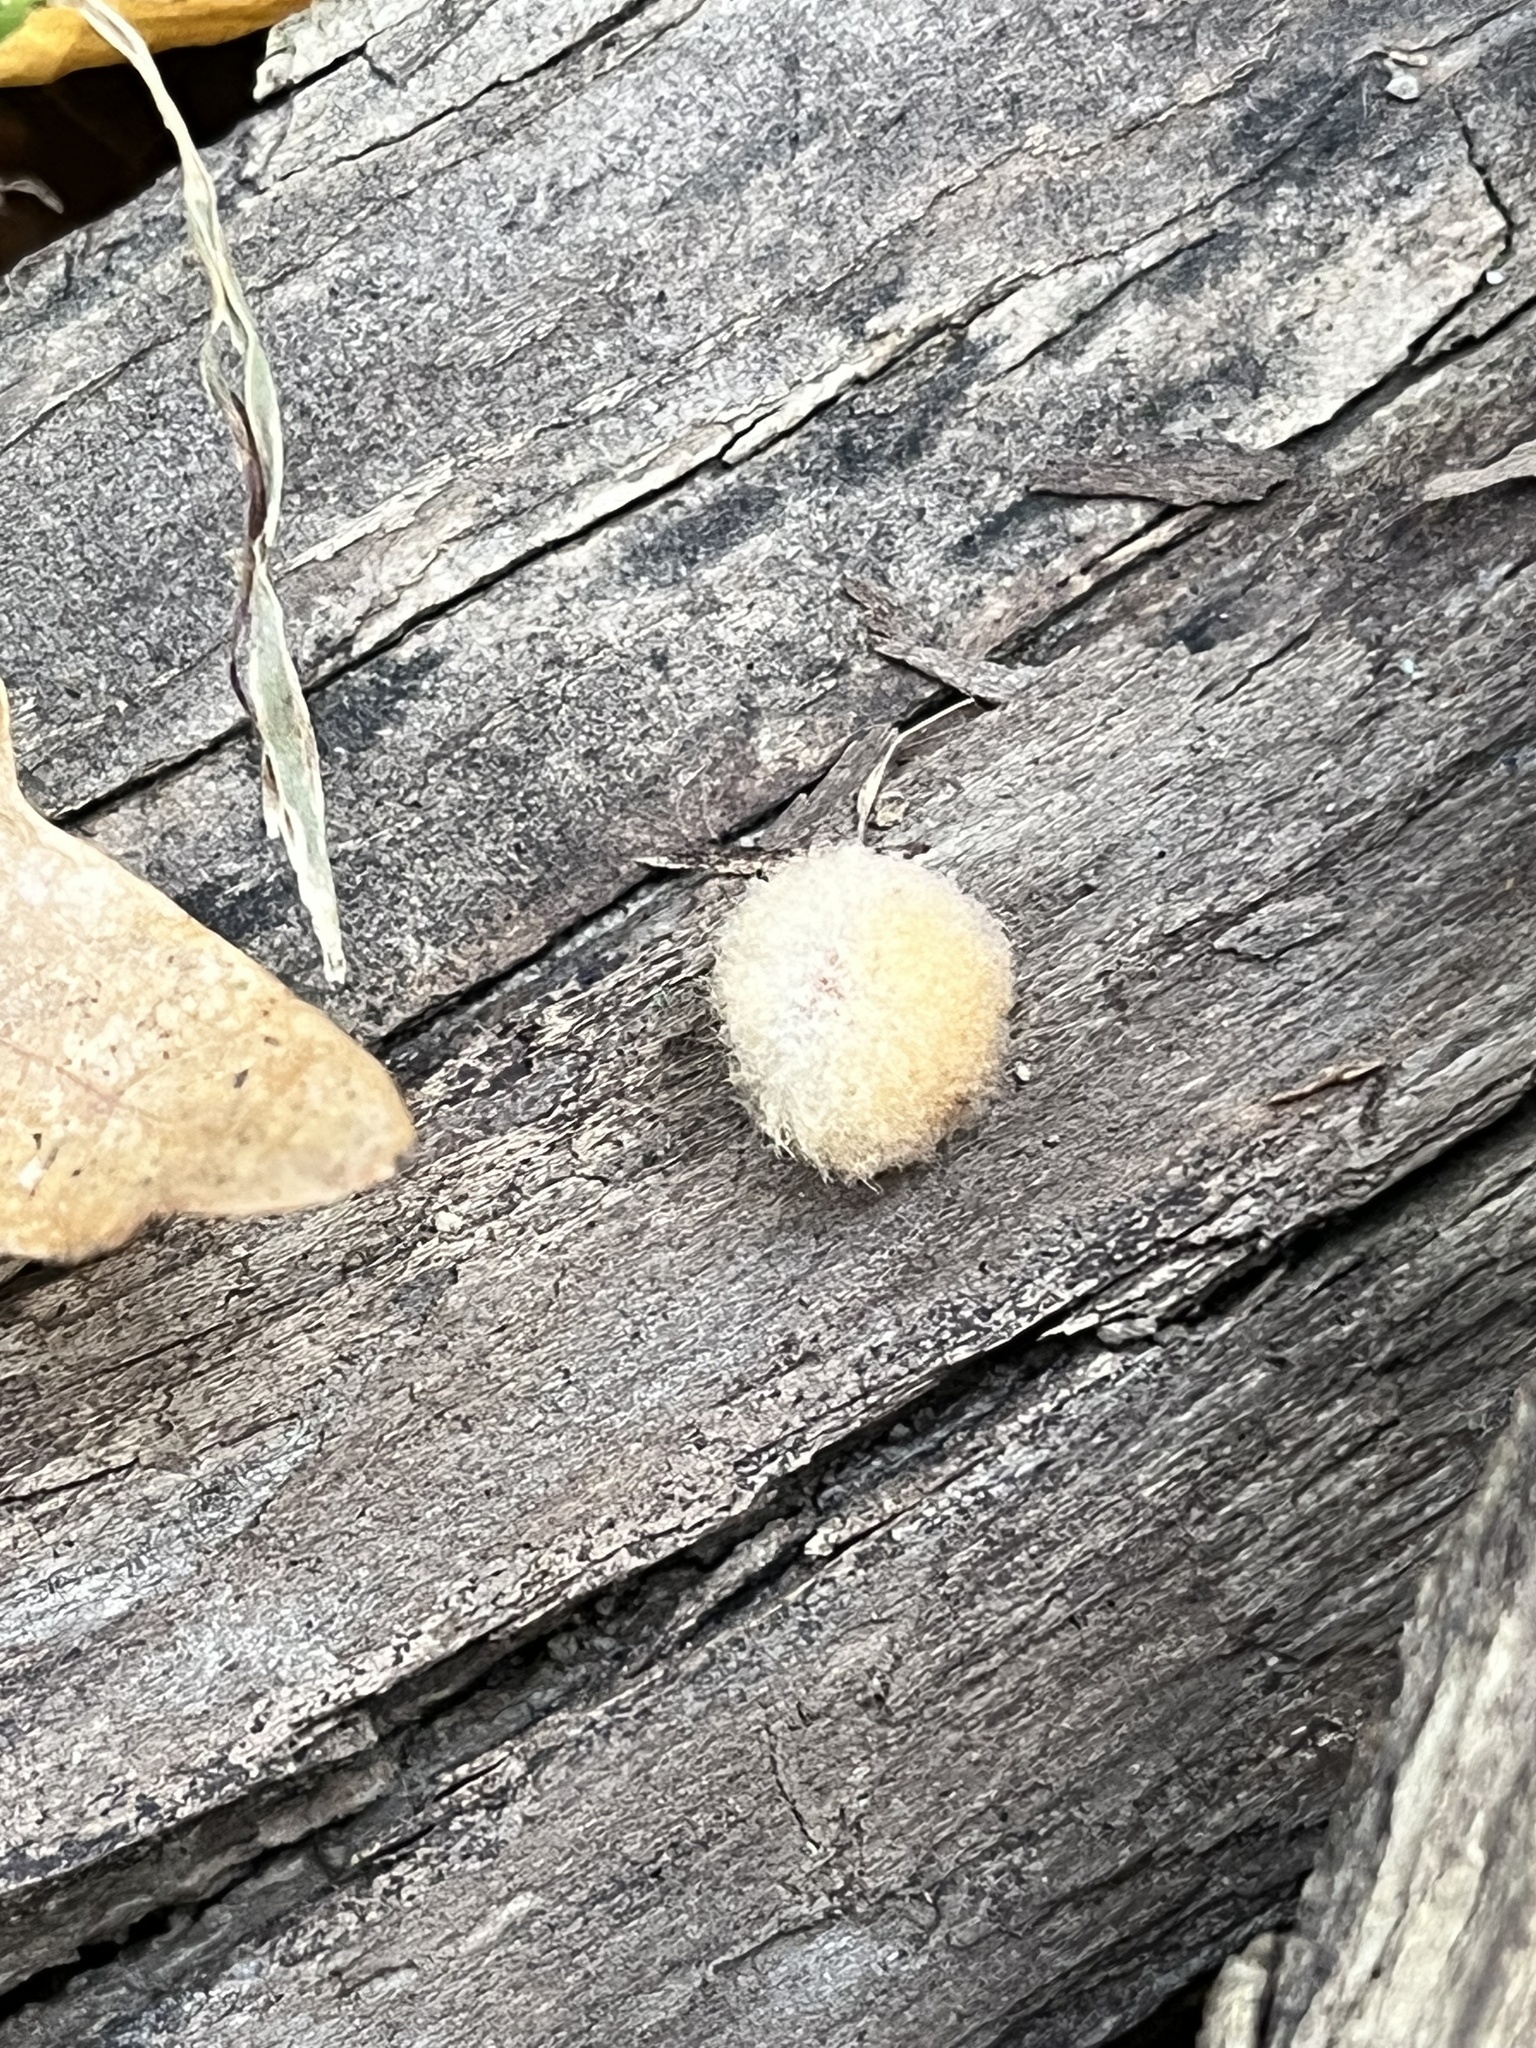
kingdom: Animalia
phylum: Arthropoda
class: Insecta
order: Hymenoptera
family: Cynipidae
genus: Callirhytis
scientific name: Callirhytis
